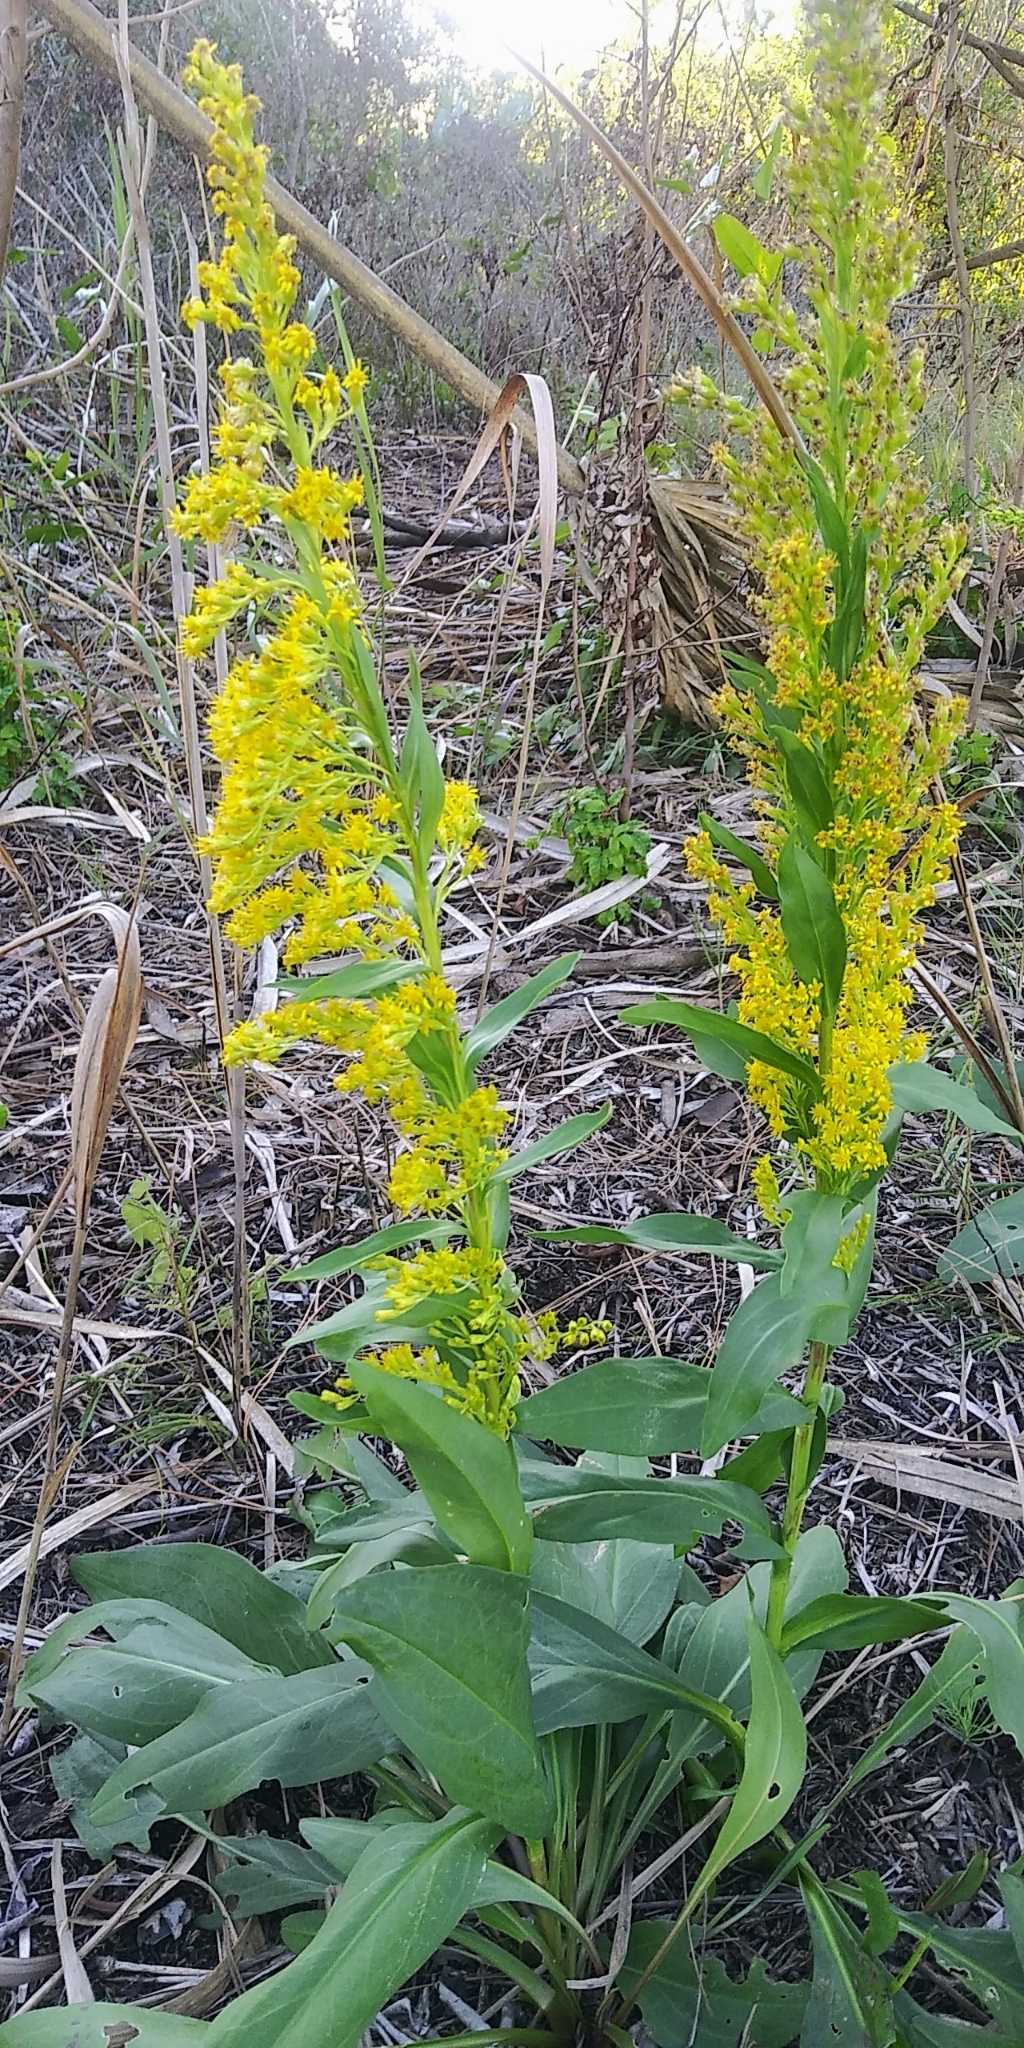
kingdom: Plantae
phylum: Tracheophyta
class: Magnoliopsida
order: Asterales
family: Asteraceae
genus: Solidago
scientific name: Solidago mexicana
